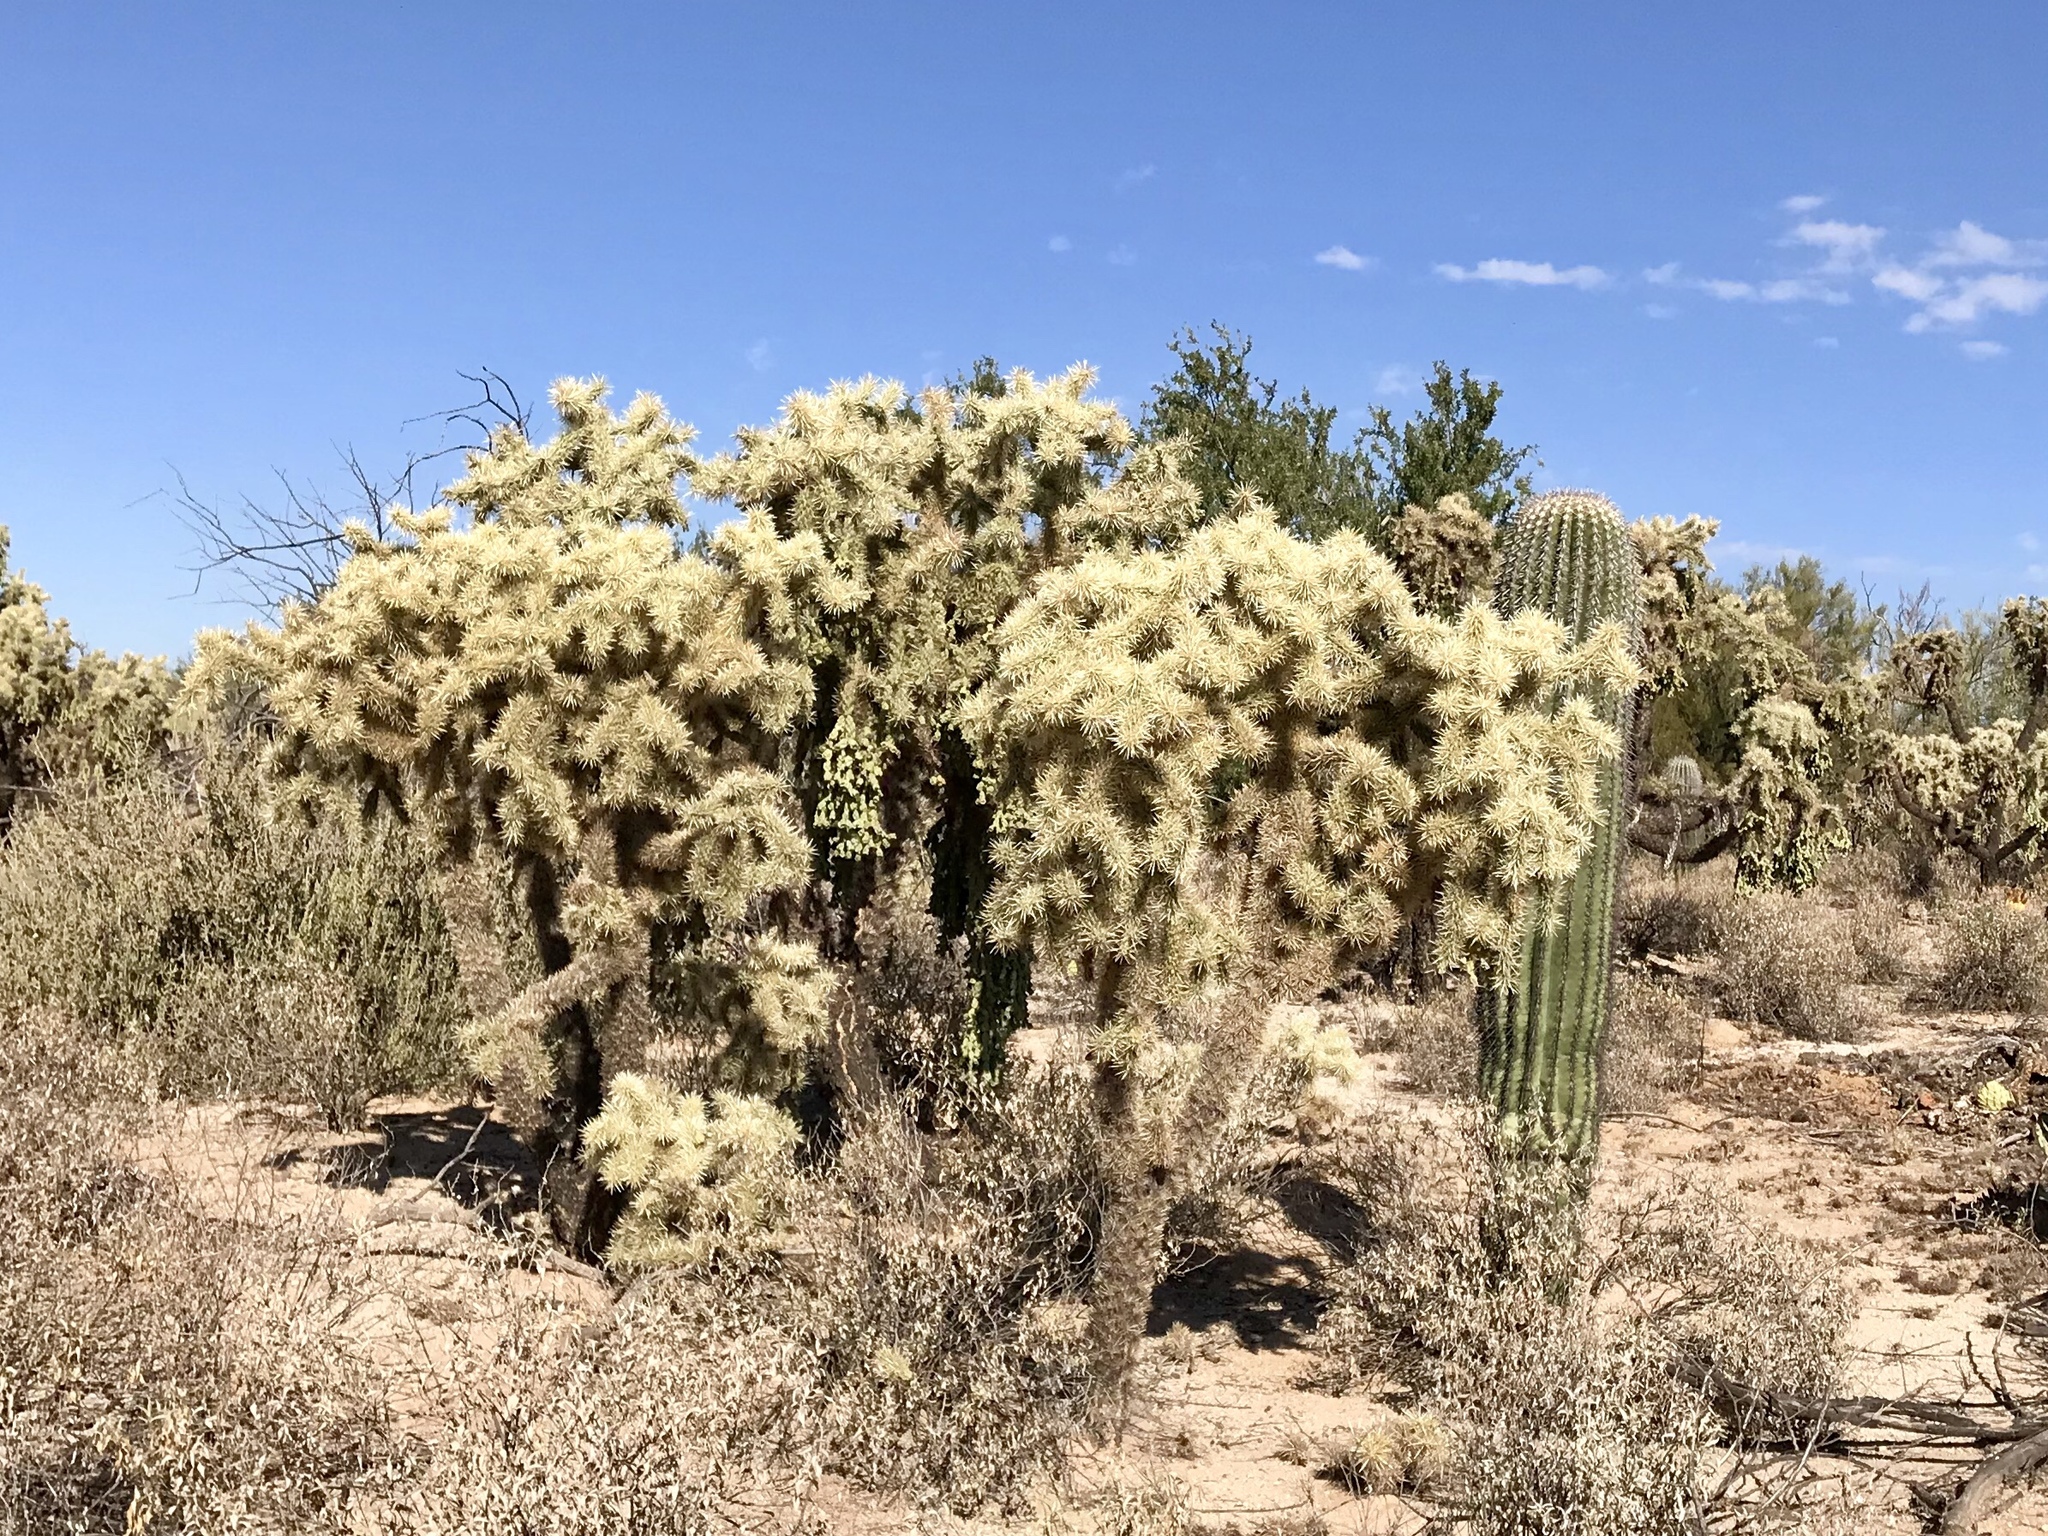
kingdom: Plantae
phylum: Tracheophyta
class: Magnoliopsida
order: Caryophyllales
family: Cactaceae
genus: Cylindropuntia
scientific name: Cylindropuntia fulgida
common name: Jumping cholla
